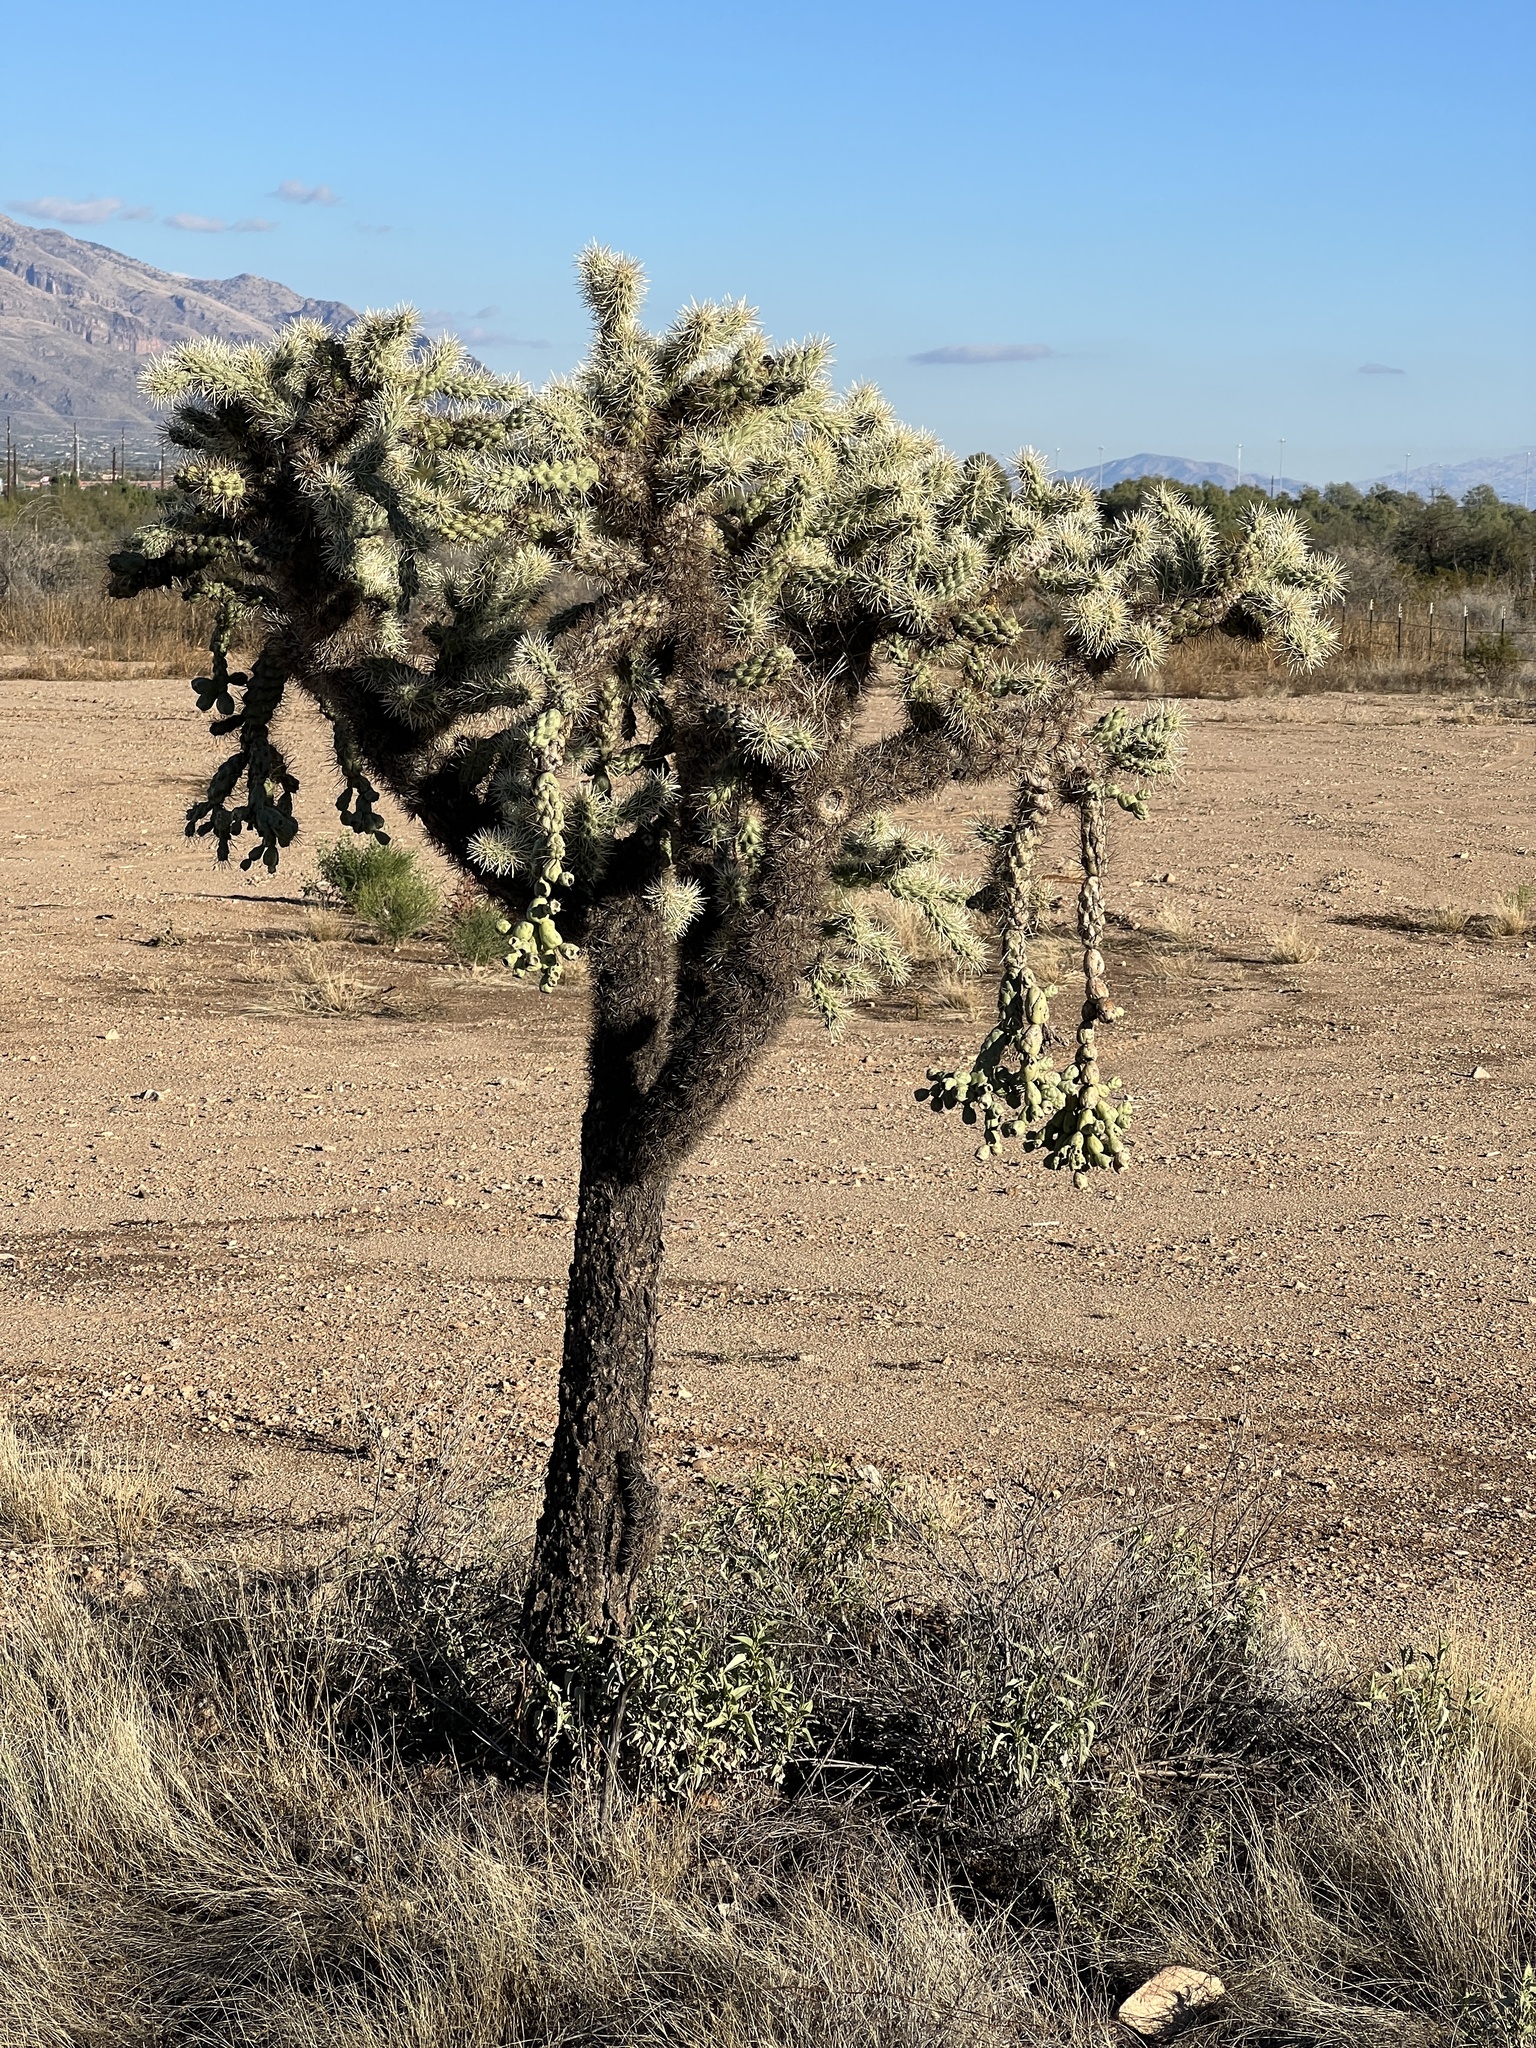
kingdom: Plantae
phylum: Tracheophyta
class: Magnoliopsida
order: Caryophyllales
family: Cactaceae
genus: Cylindropuntia
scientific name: Cylindropuntia fulgida
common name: Jumping cholla
